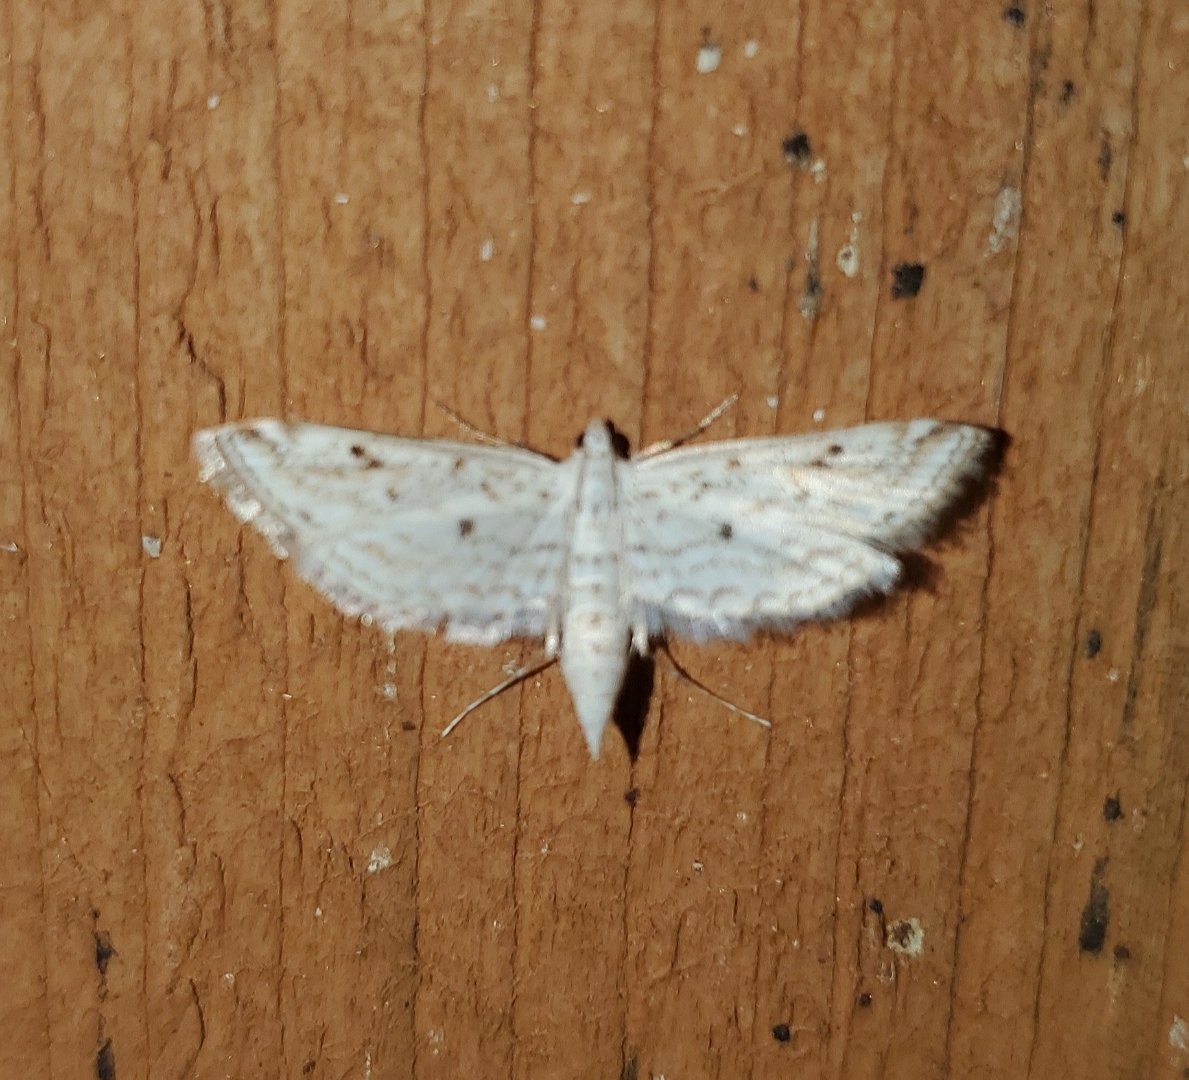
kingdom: Animalia
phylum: Arthropoda
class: Insecta
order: Lepidoptera
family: Crambidae
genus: Parapoynx
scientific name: Parapoynx allionealis
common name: Bladderwort casemaker
